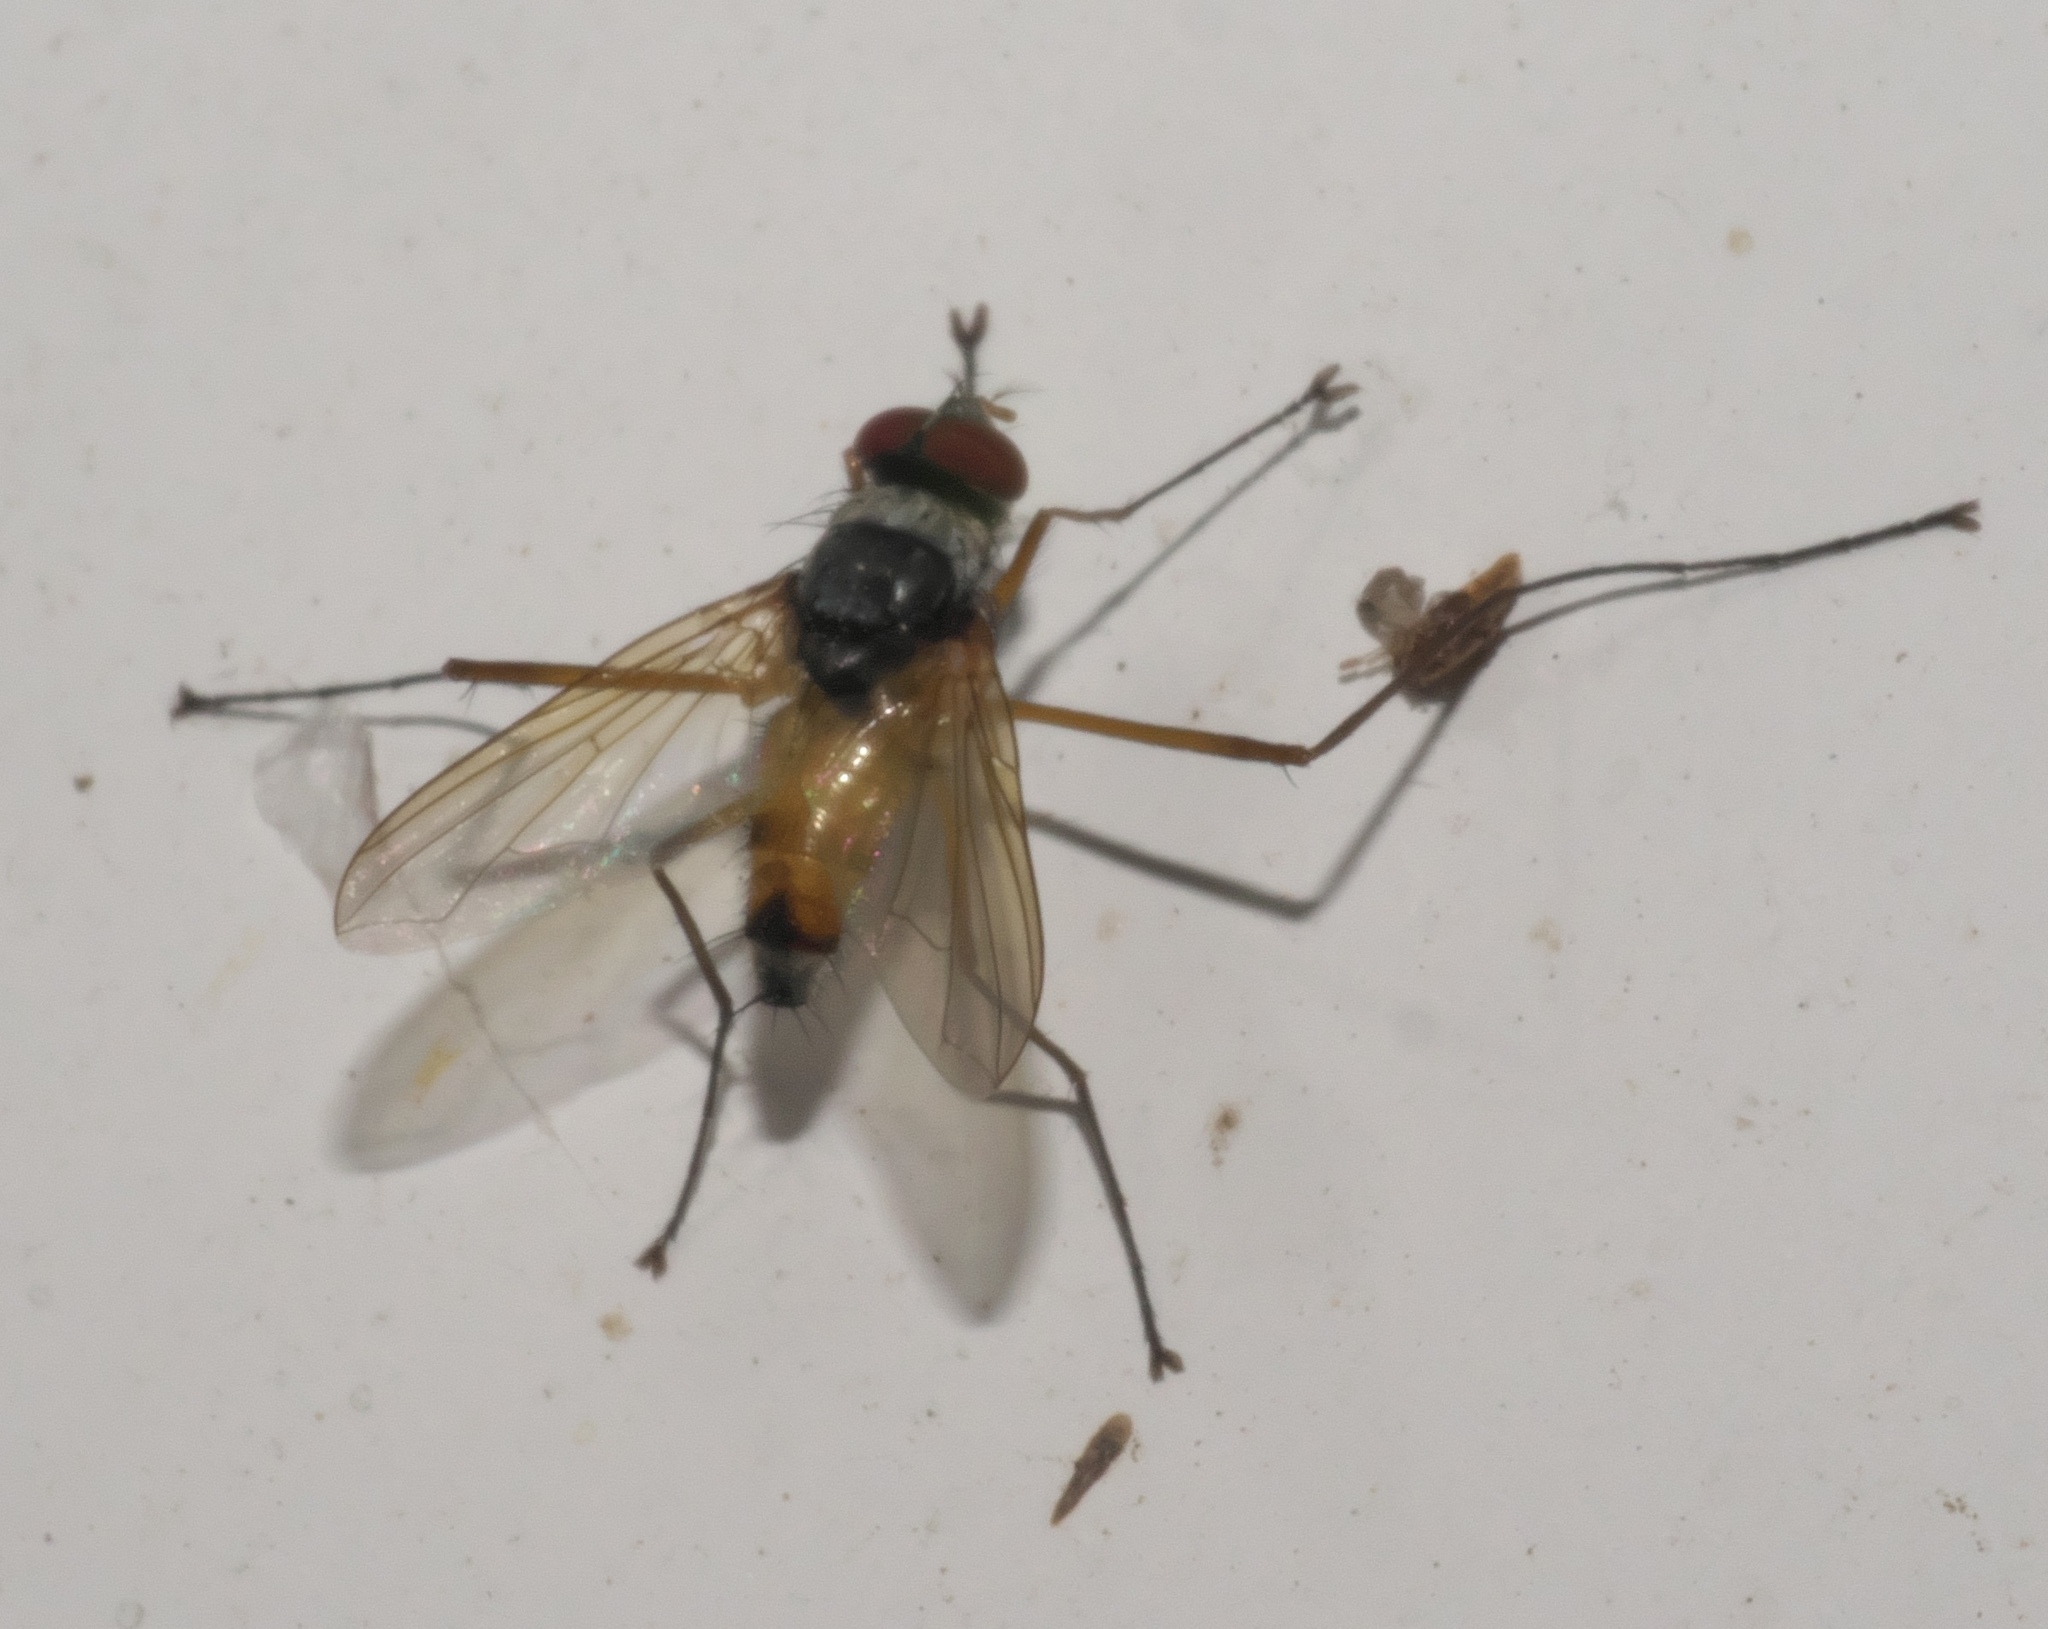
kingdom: Animalia
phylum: Arthropoda
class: Insecta
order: Diptera
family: Tachinidae
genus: Cholomyia
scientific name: Cholomyia inaequipes
